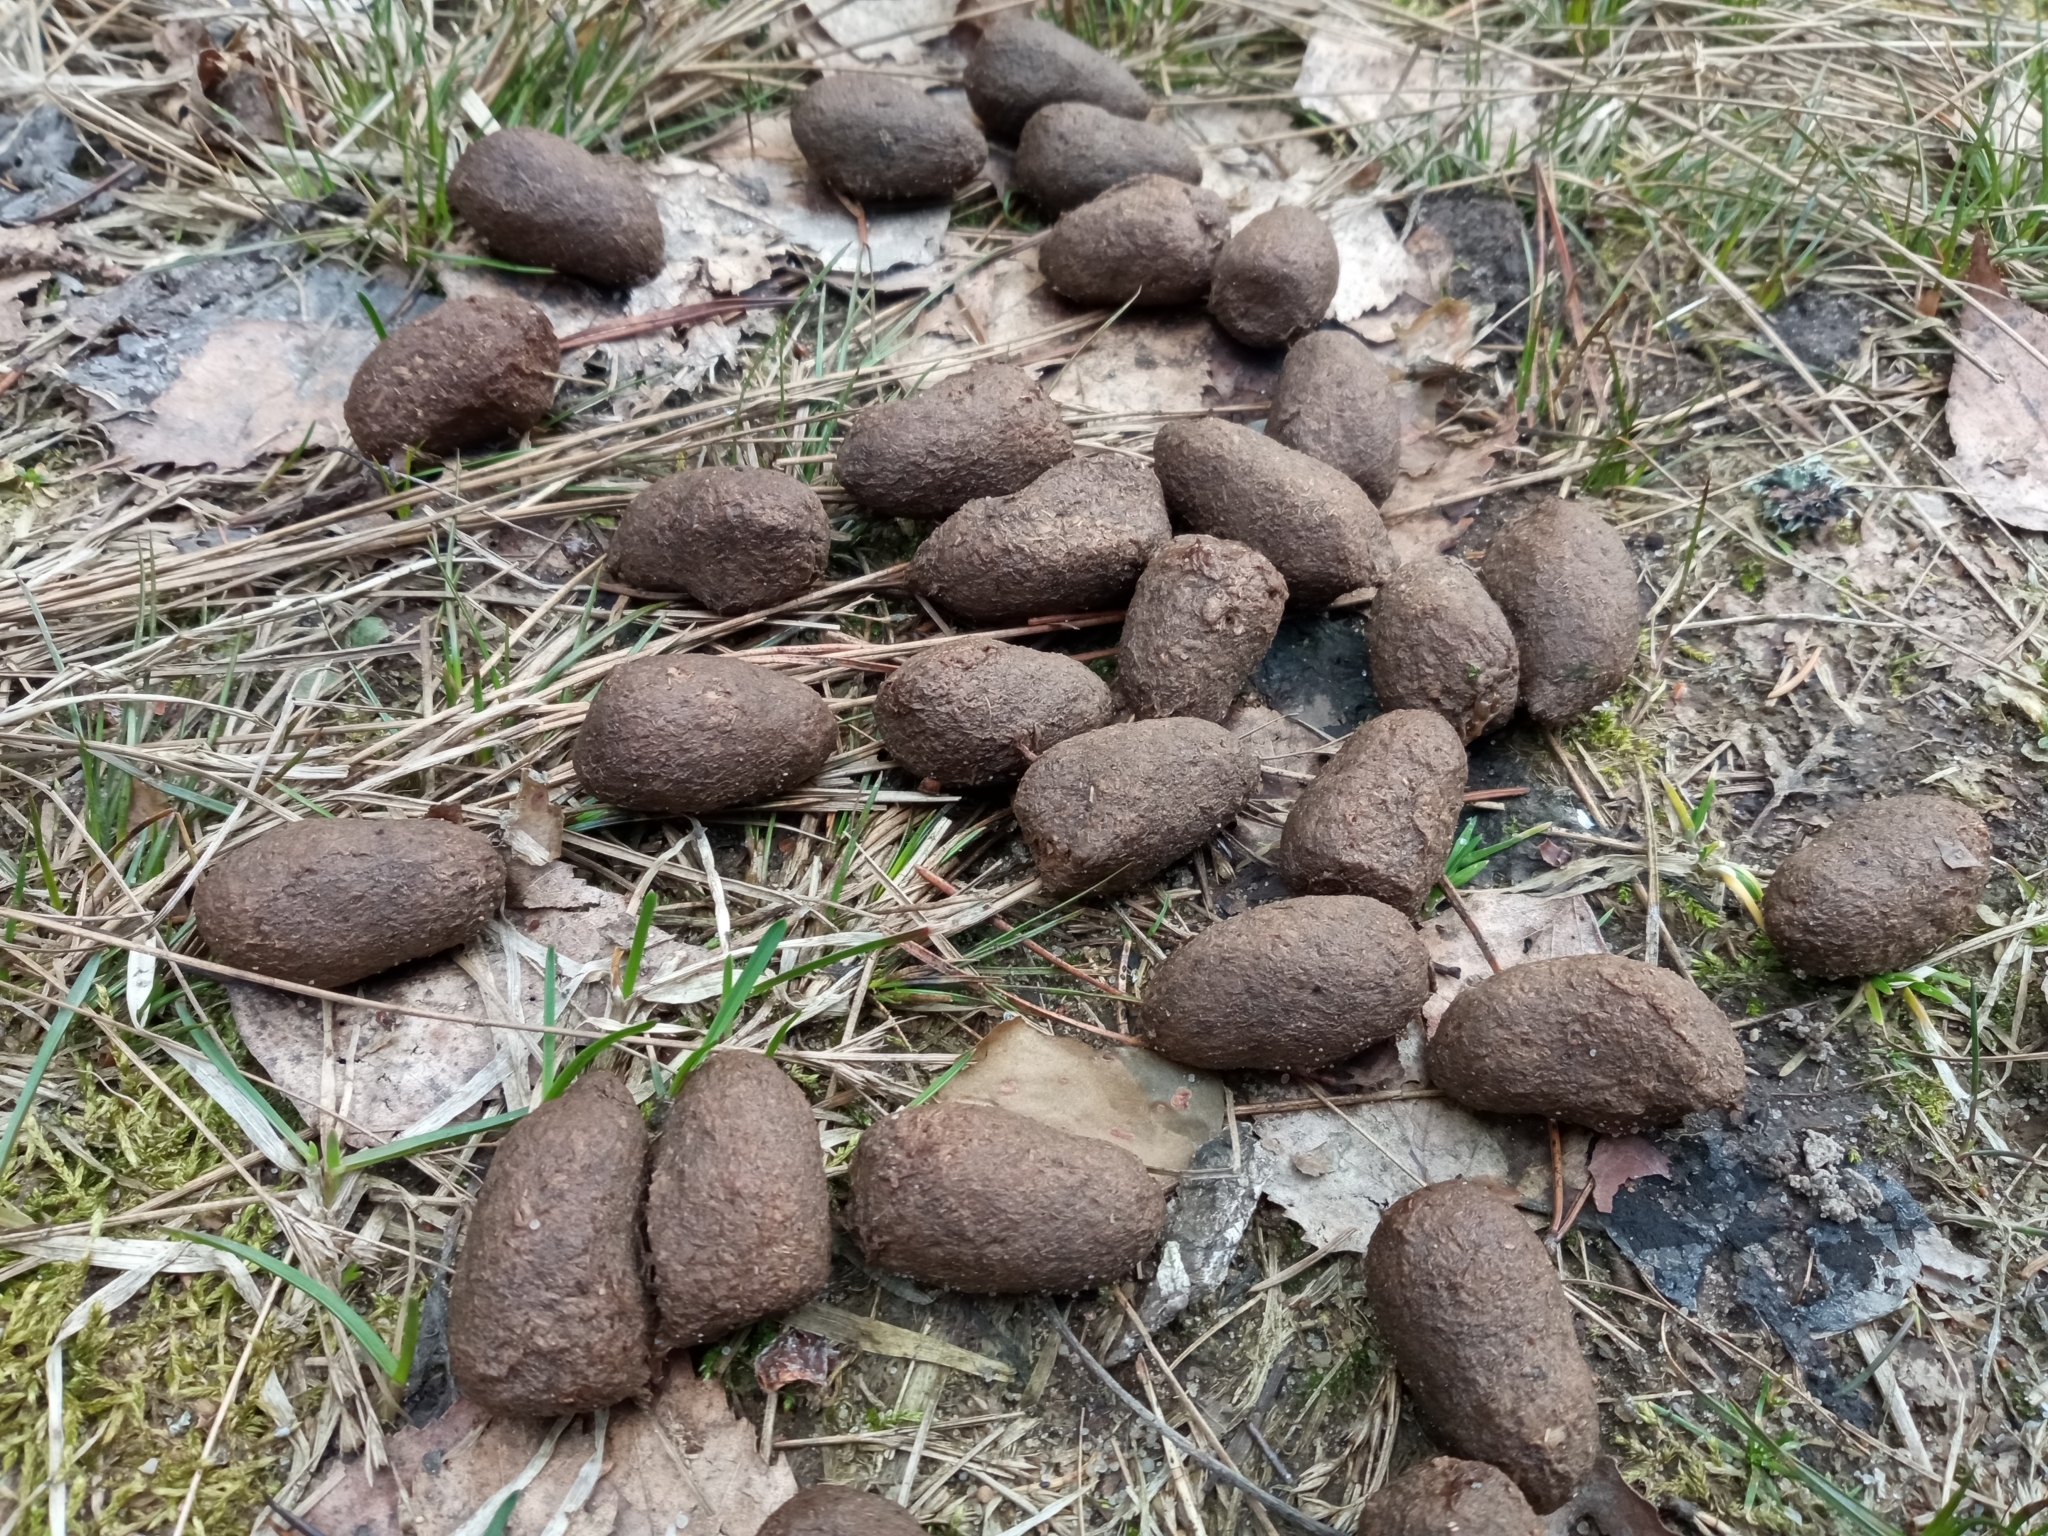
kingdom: Animalia
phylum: Chordata
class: Mammalia
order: Artiodactyla
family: Cervidae
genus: Alces
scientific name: Alces alces
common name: Moose
